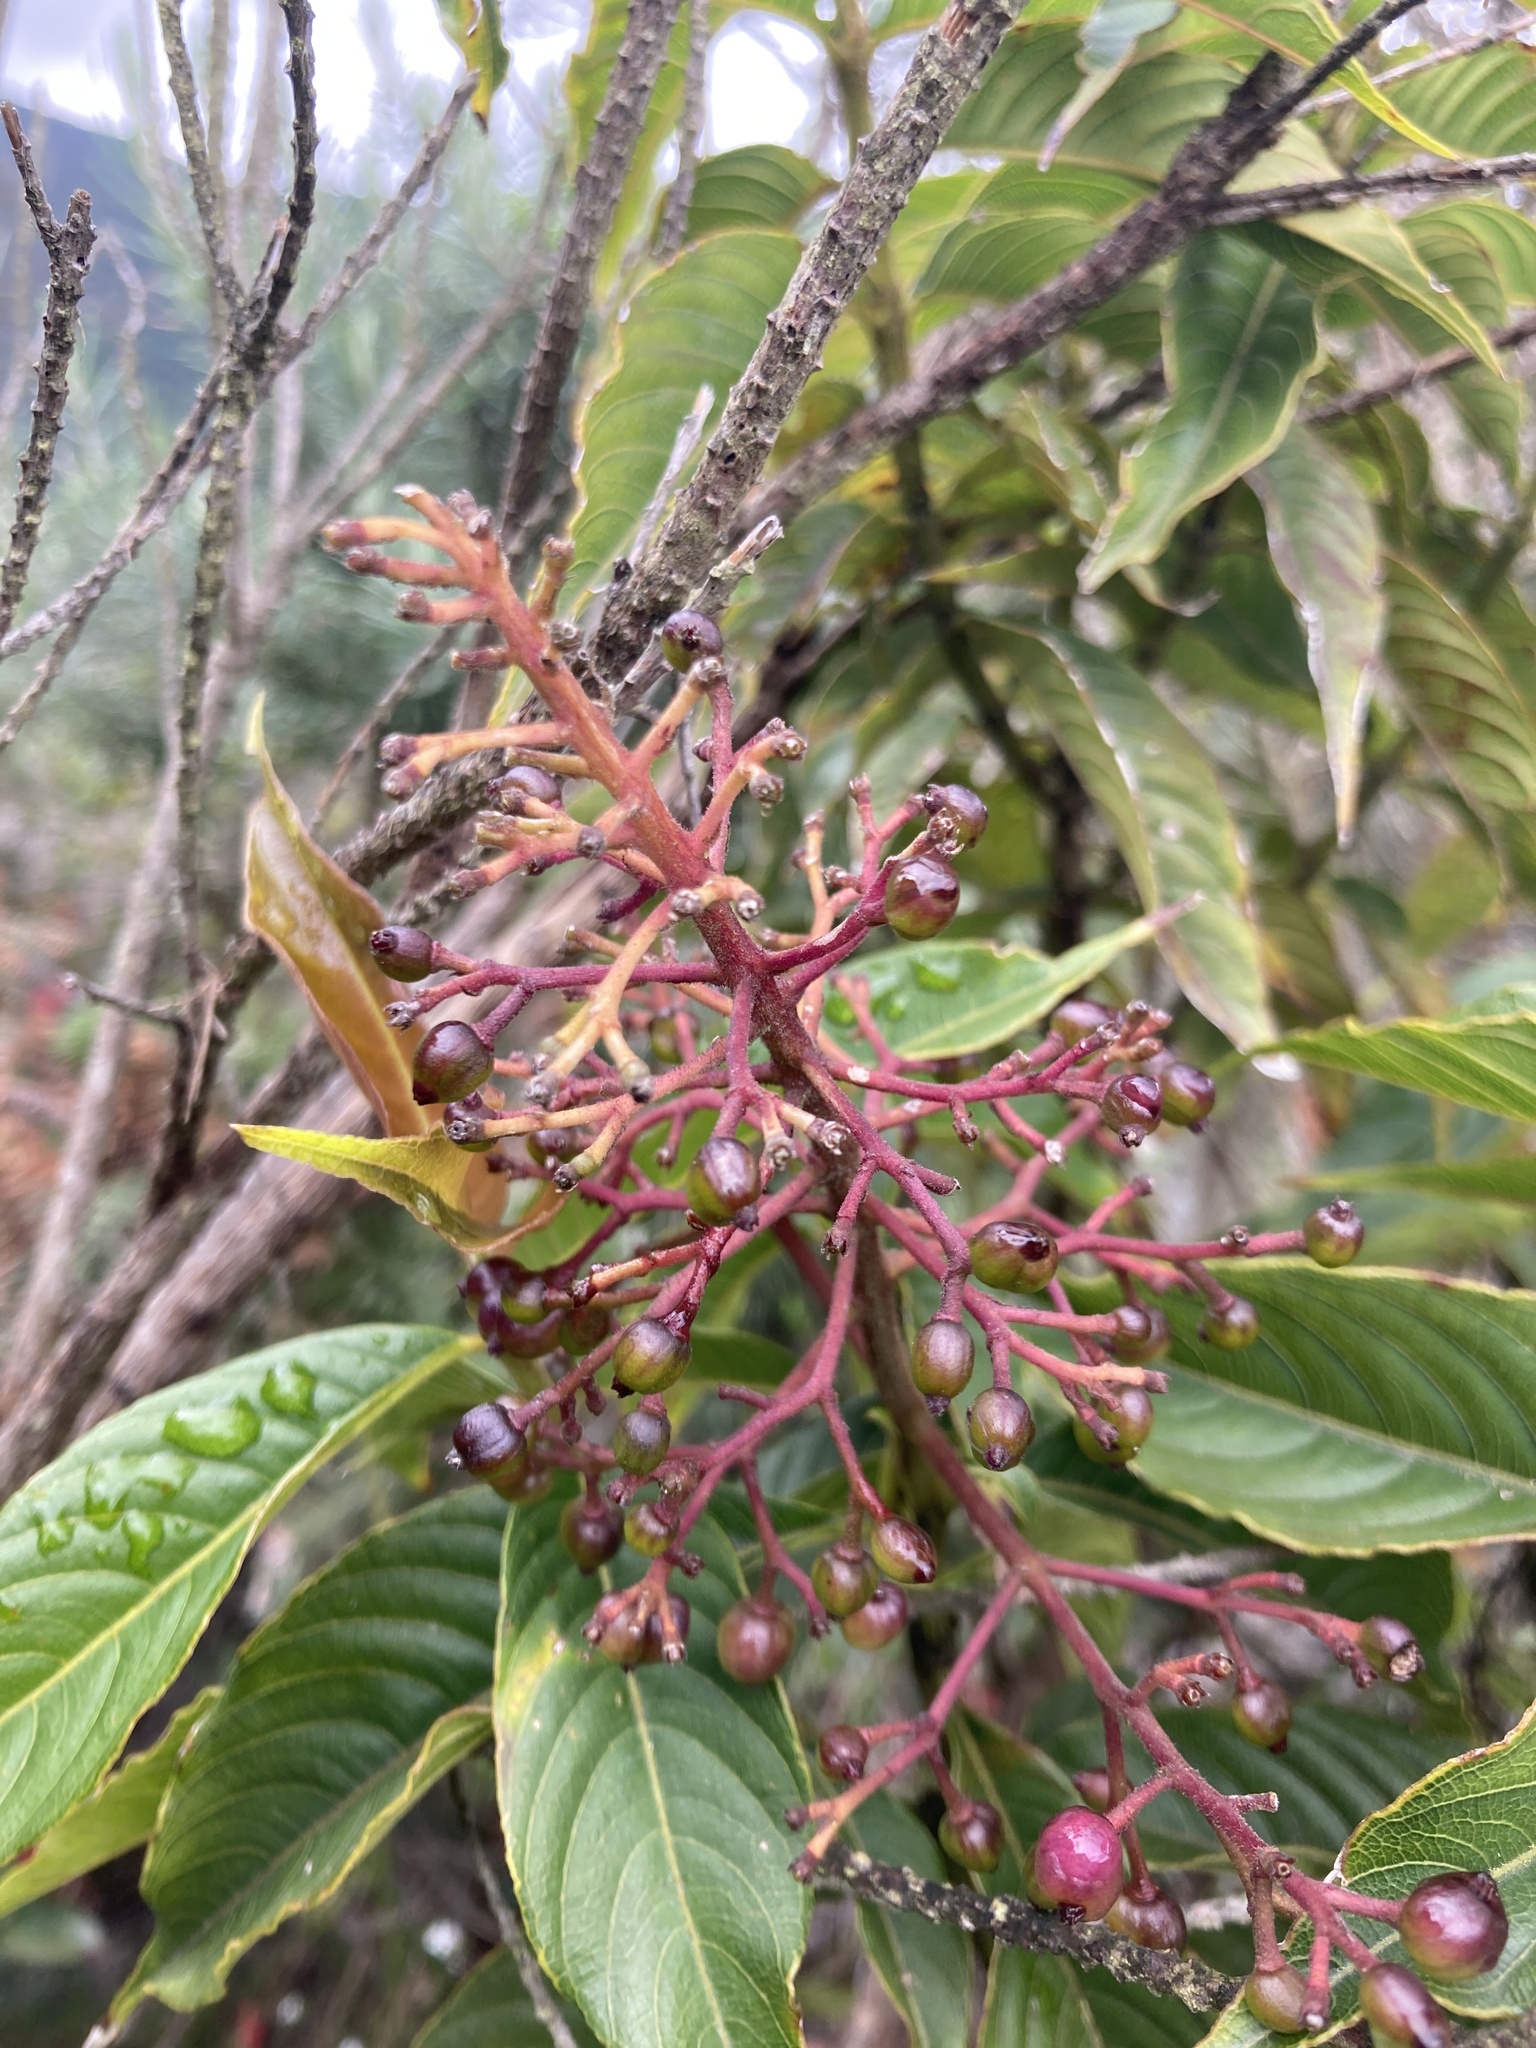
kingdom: Plantae
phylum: Tracheophyta
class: Magnoliopsida
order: Gentianales
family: Rubiaceae
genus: Palicourea
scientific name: Palicourea angustifolia
